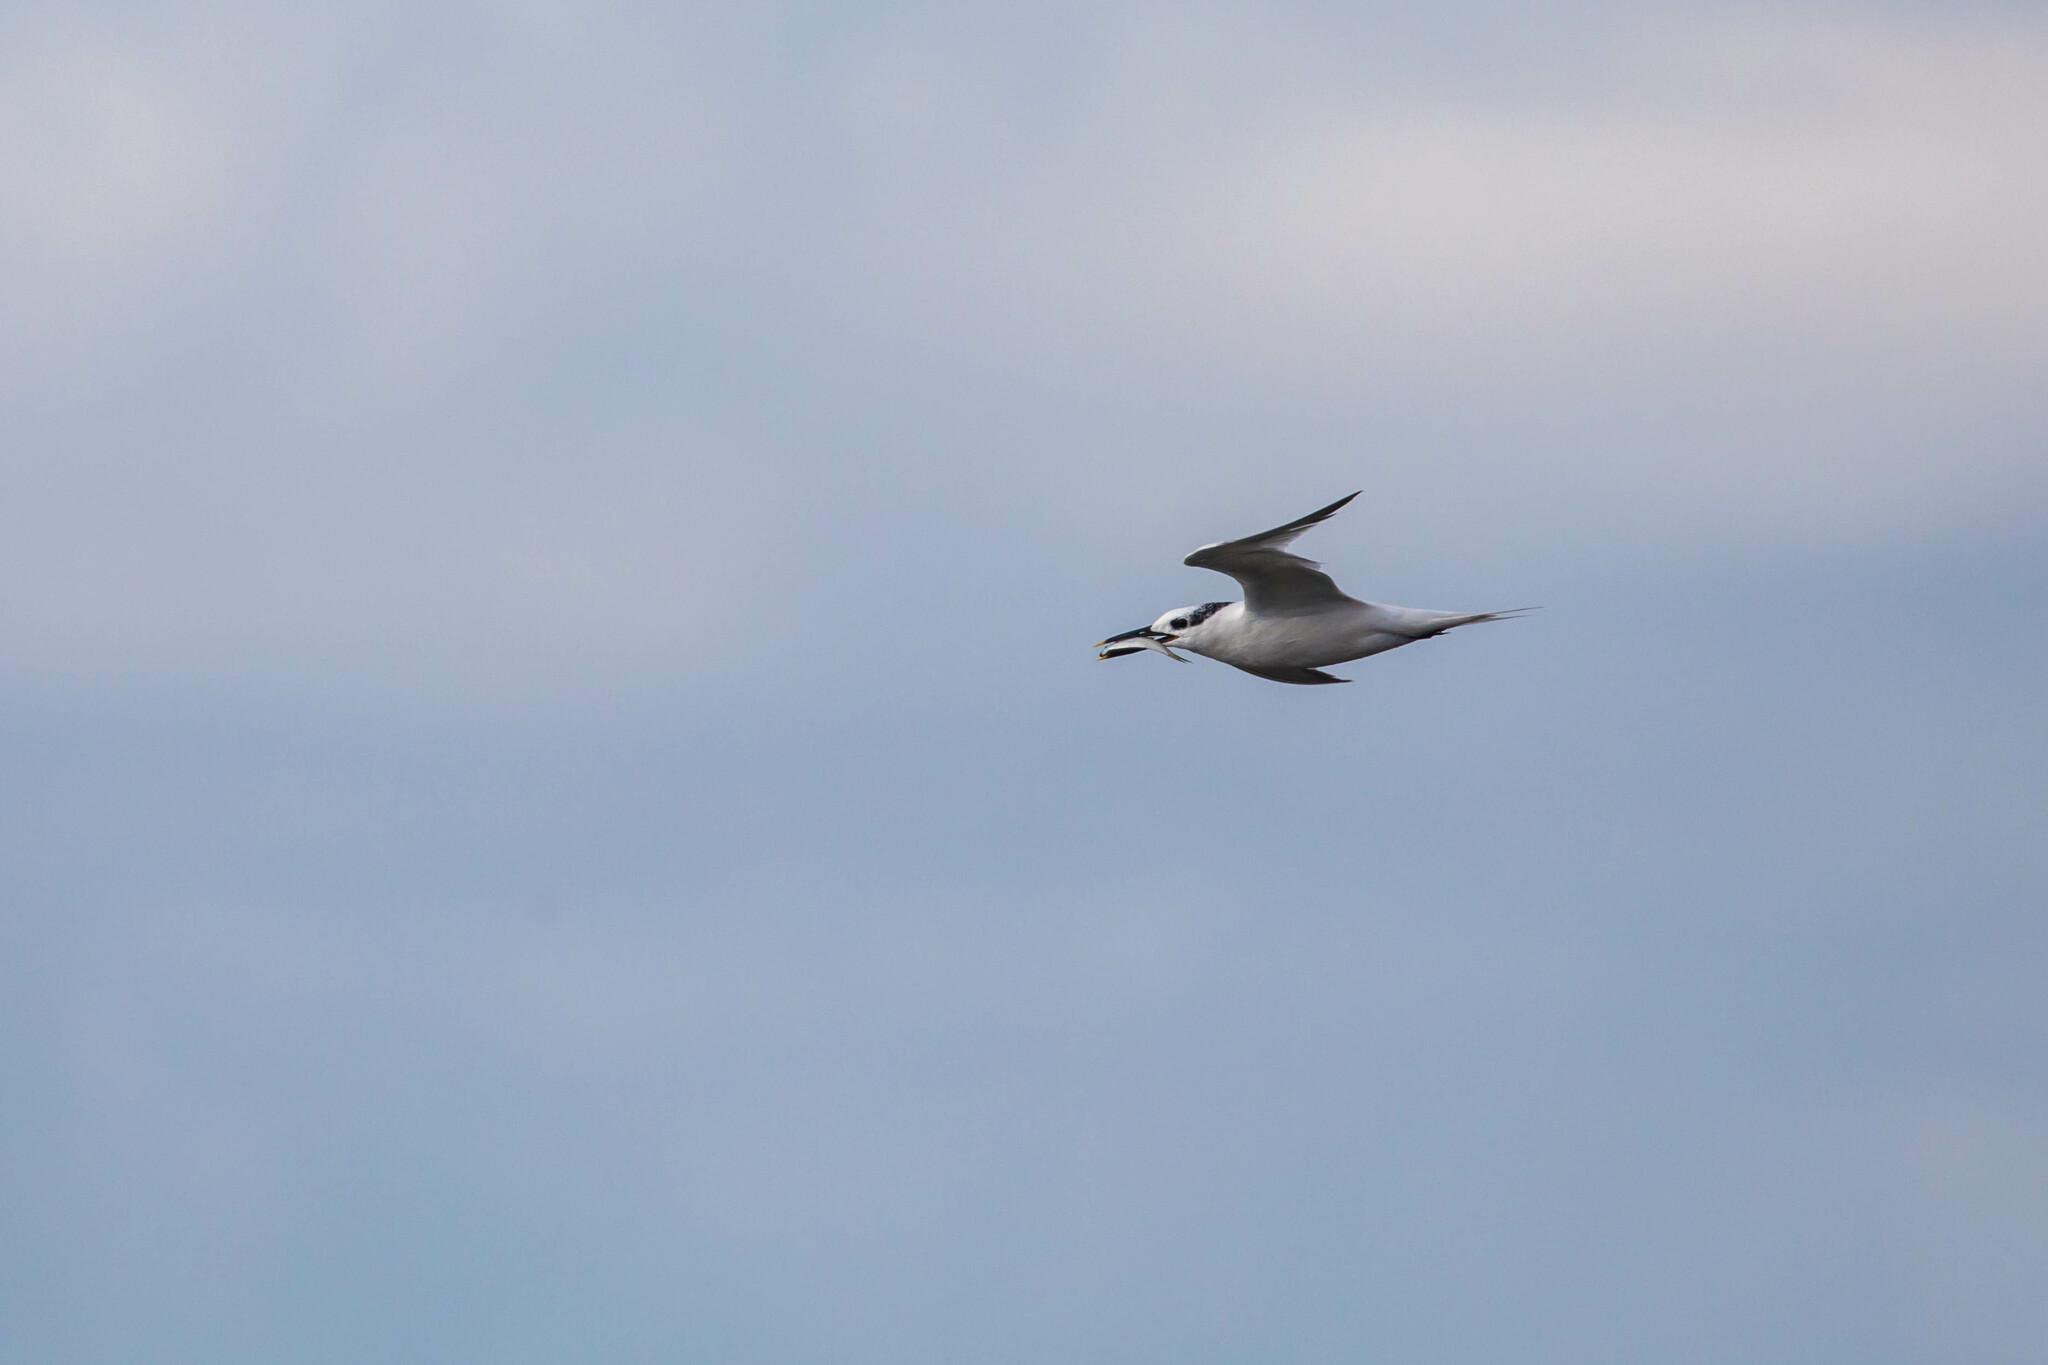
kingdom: Animalia
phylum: Chordata
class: Aves
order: Charadriiformes
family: Laridae
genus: Thalasseus
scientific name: Thalasseus sandvicensis
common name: Sandwich tern
